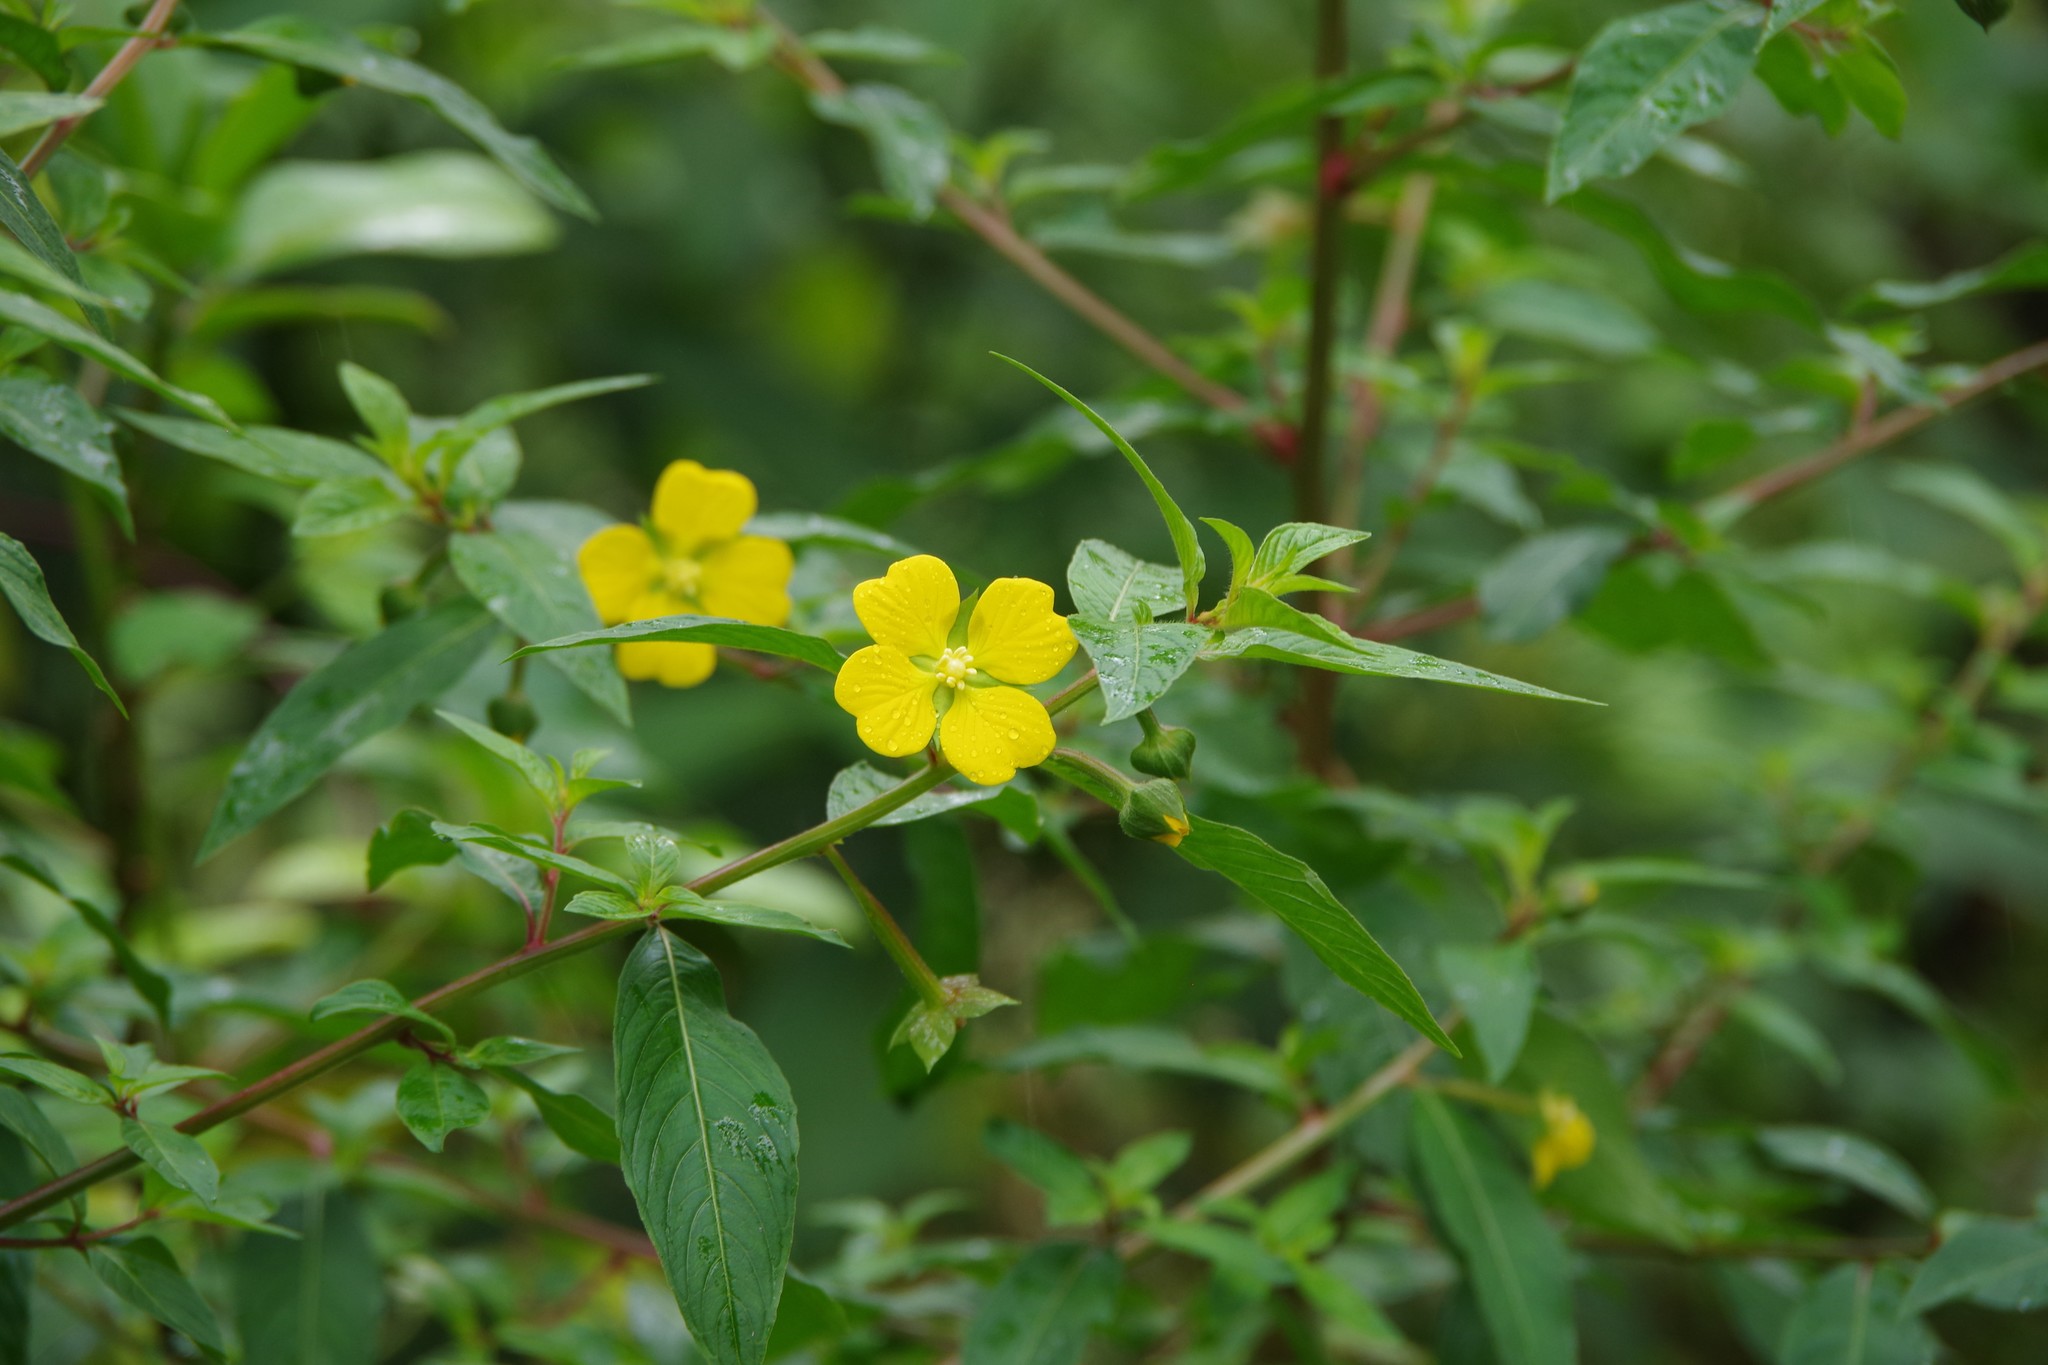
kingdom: Plantae
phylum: Tracheophyta
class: Magnoliopsida
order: Myrtales
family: Onagraceae
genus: Ludwigia
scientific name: Ludwigia octovalvis
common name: Water-primrose
